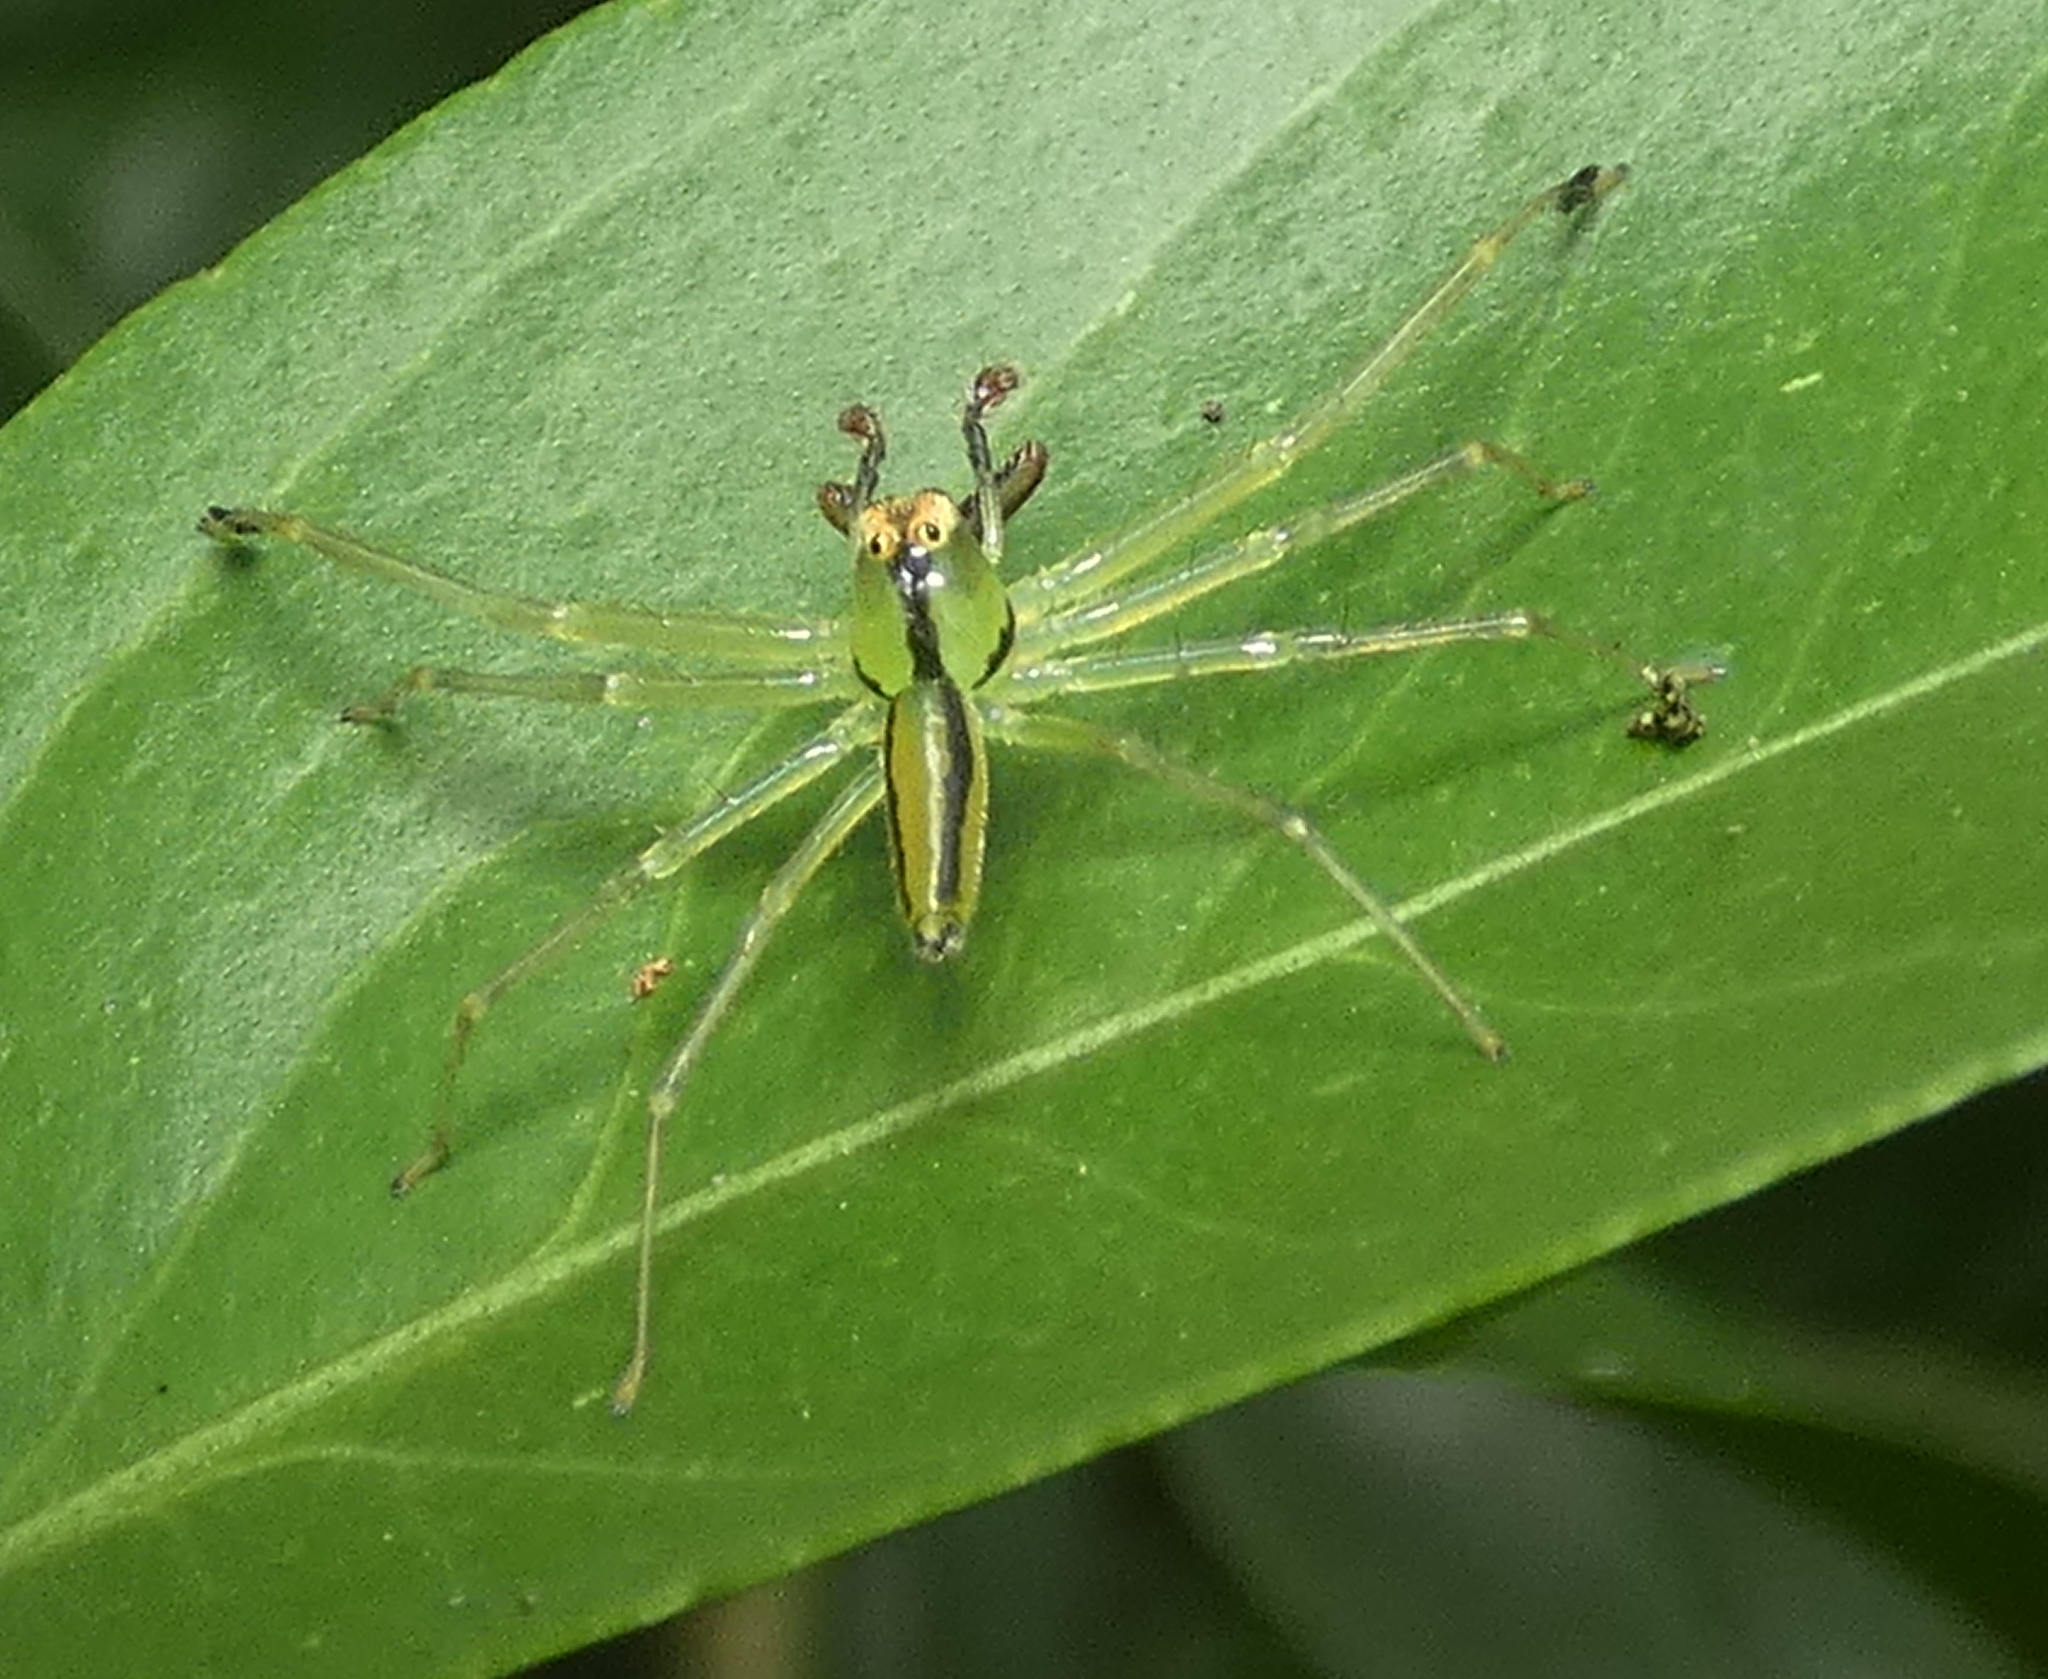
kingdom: Animalia
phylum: Arthropoda
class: Arachnida
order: Araneae
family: Salticidae
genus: Lyssomanes
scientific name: Lyssomanes remotus
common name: Jumping spiders
